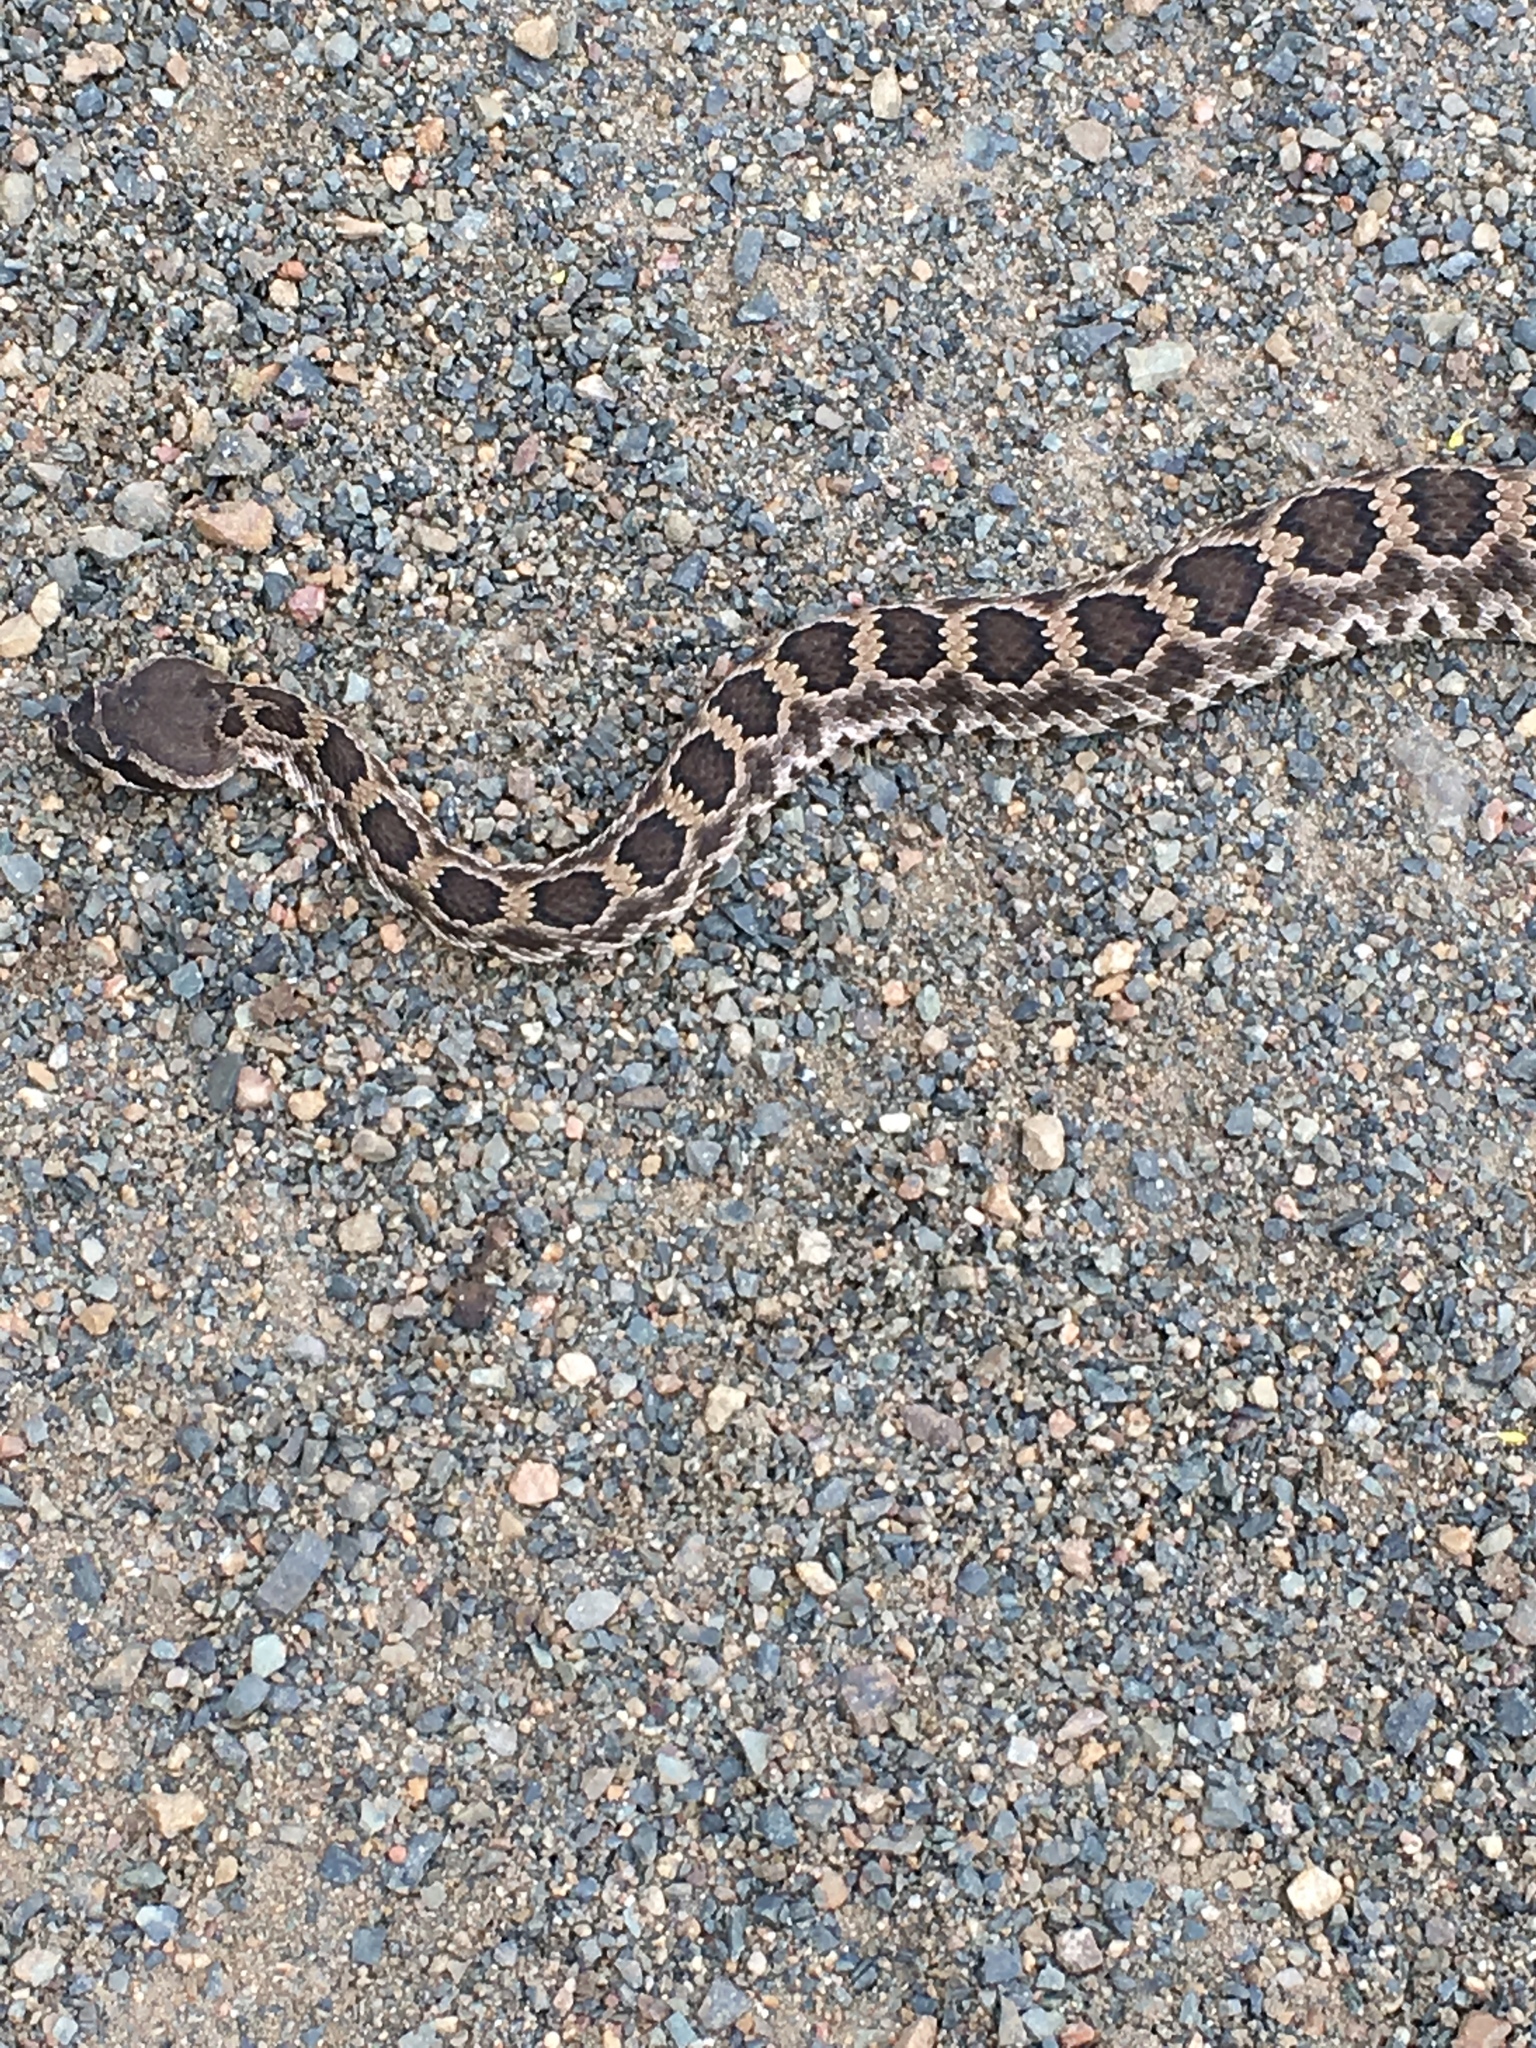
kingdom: Animalia
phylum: Chordata
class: Squamata
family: Viperidae
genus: Crotalus
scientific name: Crotalus oreganus
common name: Abyssus
